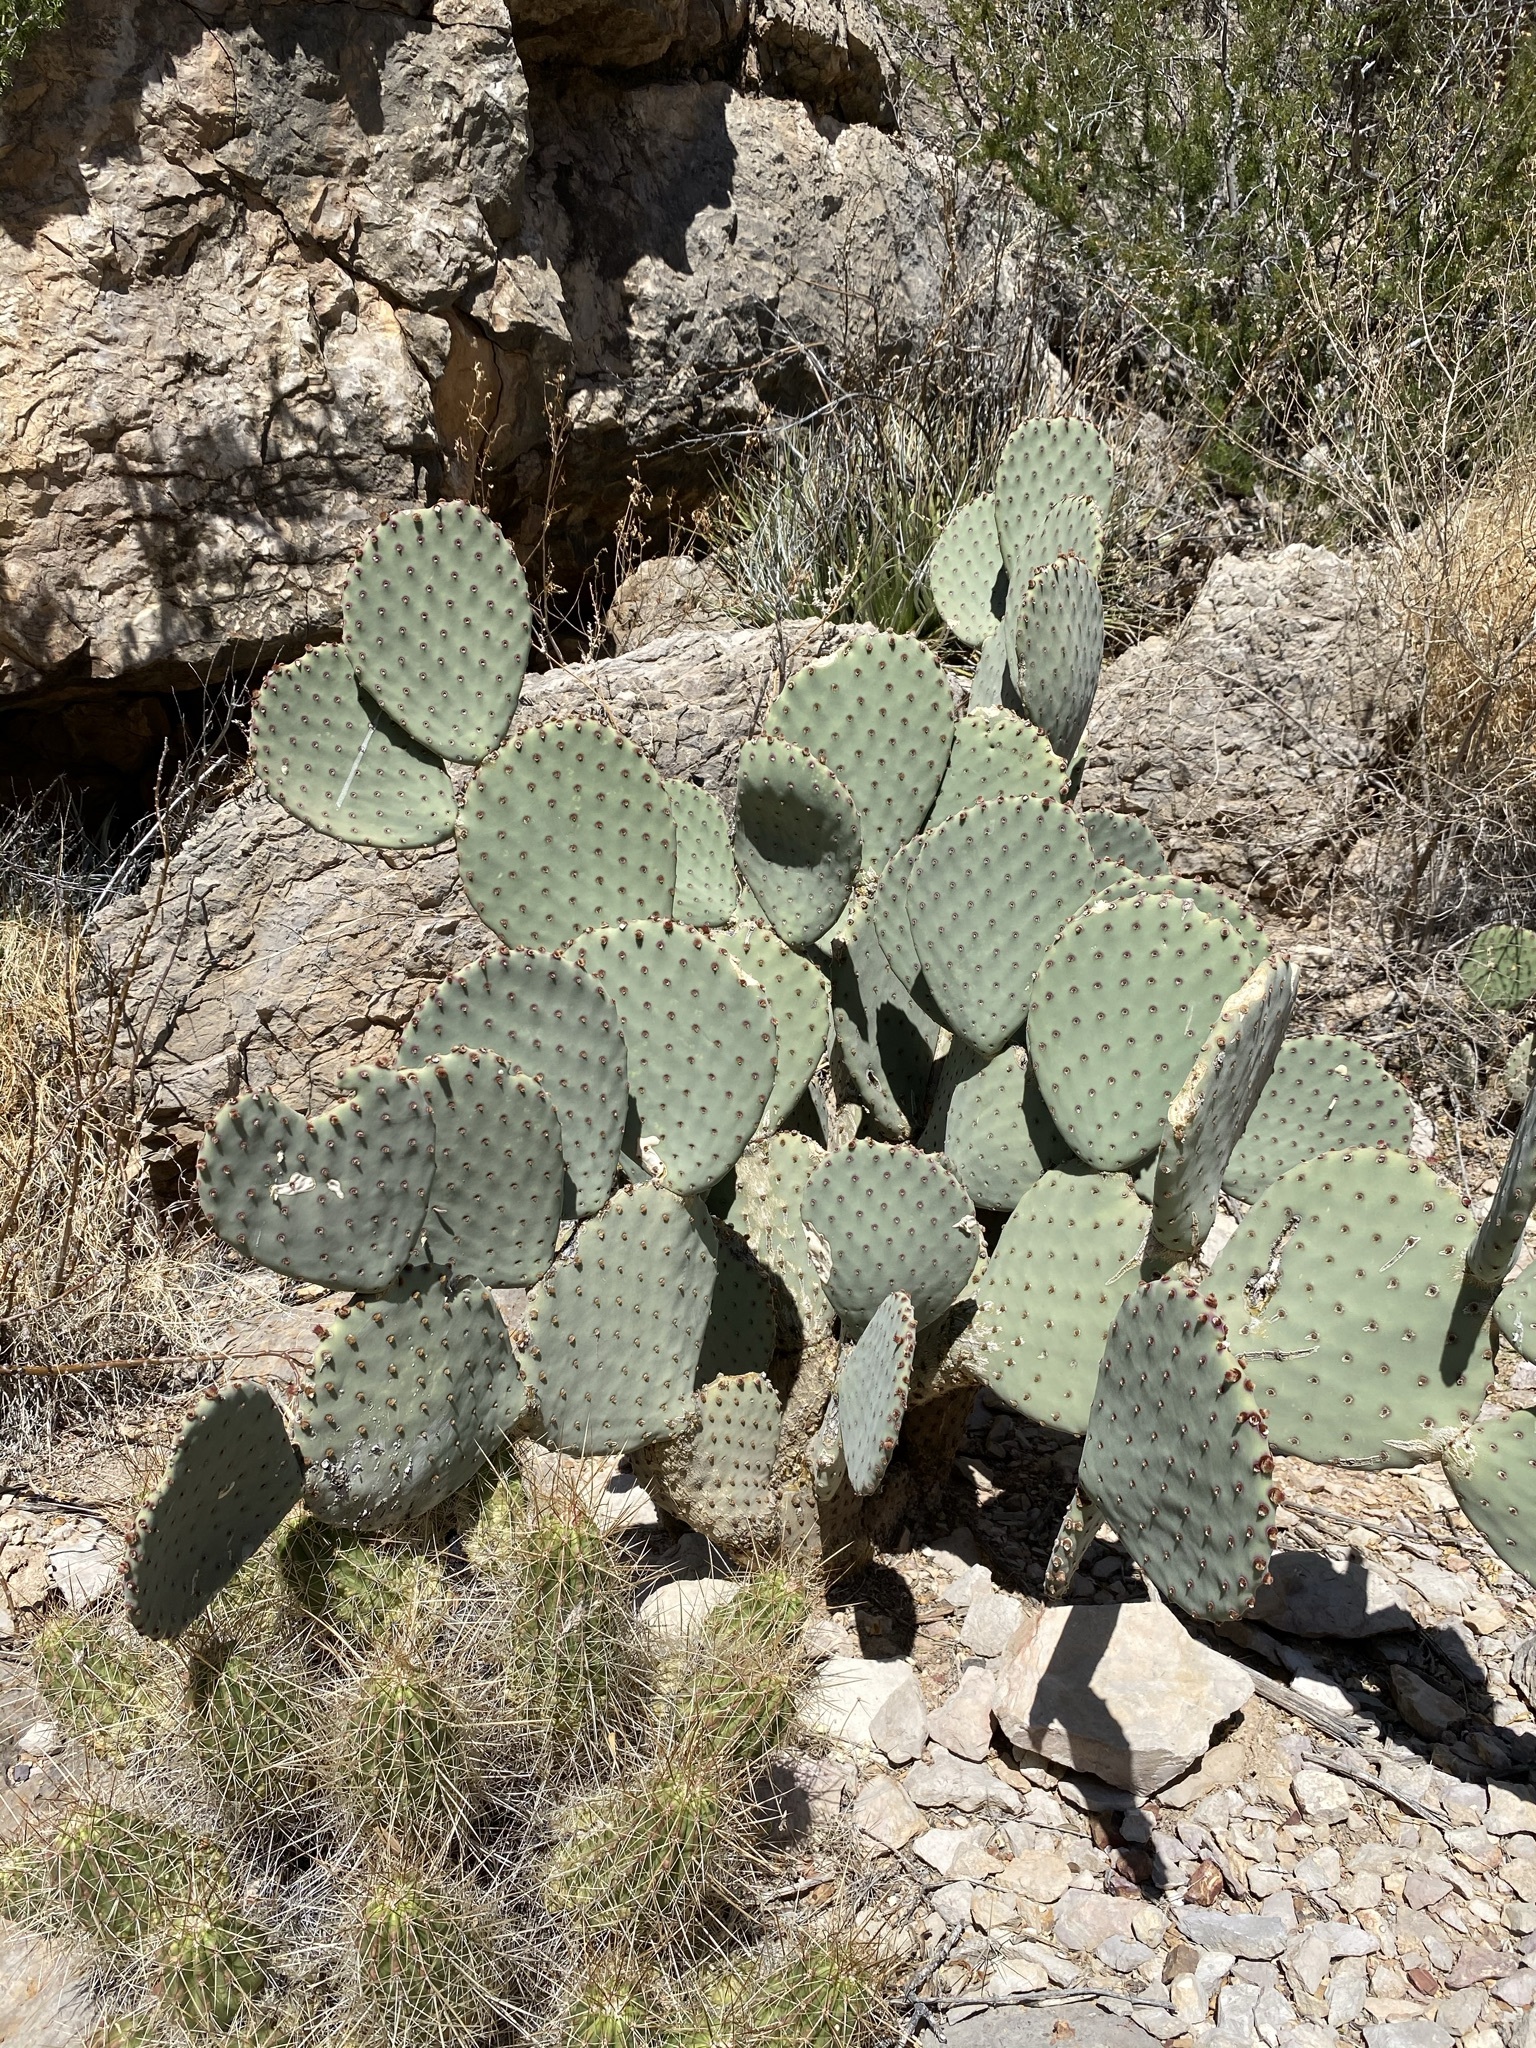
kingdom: Plantae
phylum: Tracheophyta
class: Magnoliopsida
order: Caryophyllales
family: Cactaceae
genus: Opuntia
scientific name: Opuntia rufida
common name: Blind pricklypear
